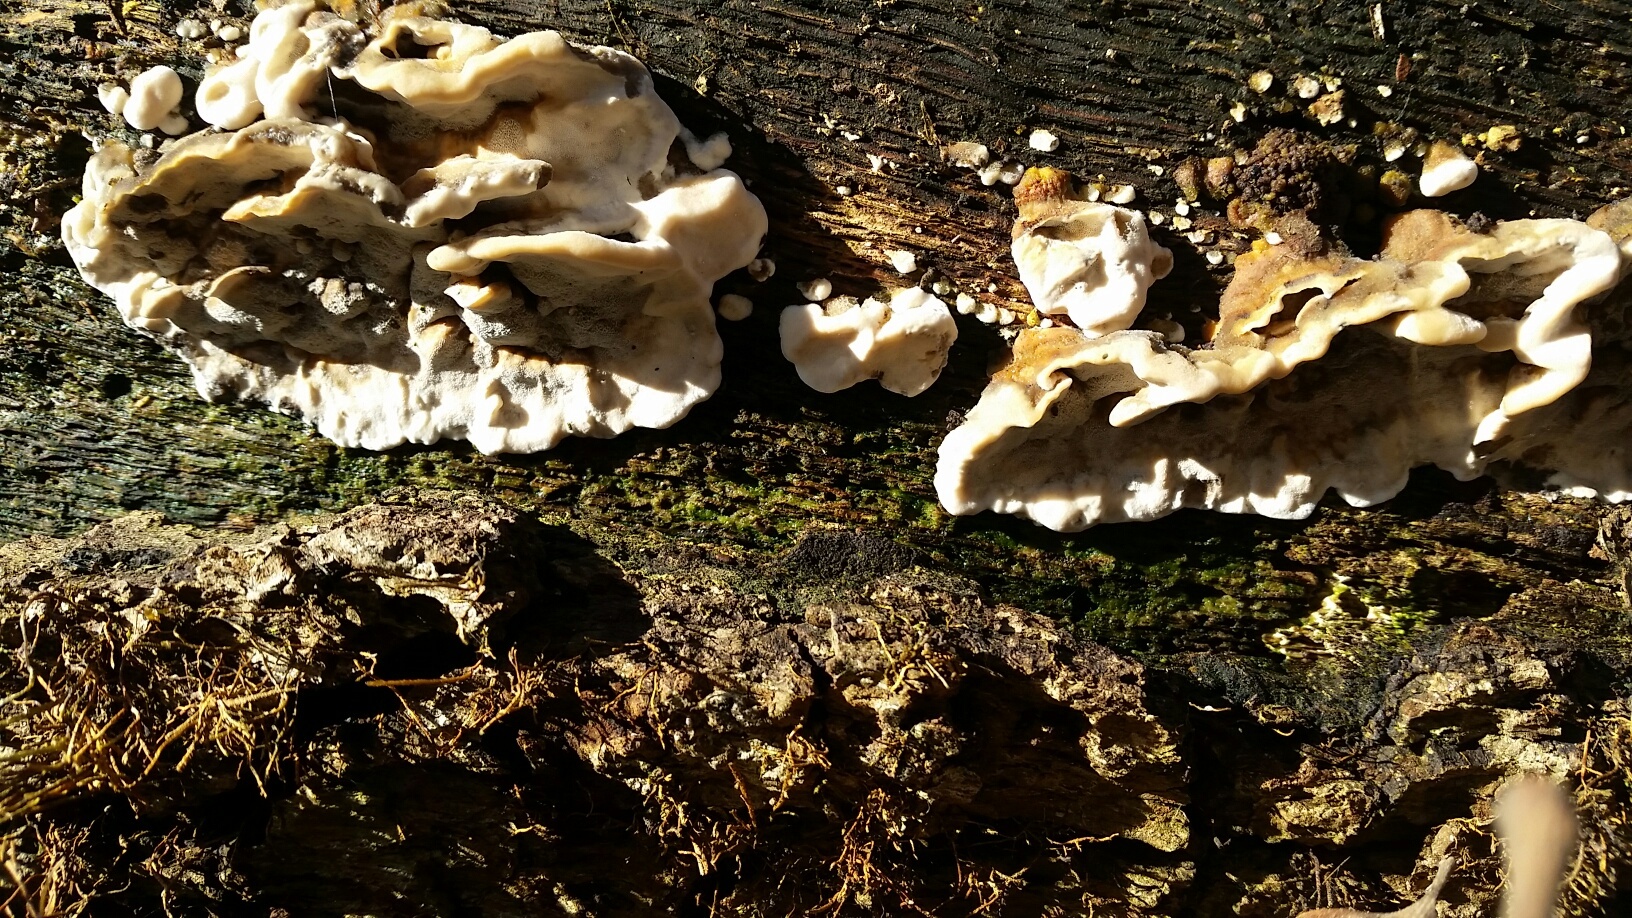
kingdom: Fungi
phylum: Basidiomycota
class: Agaricomycetes
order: Polyporales
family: Phanerochaetaceae
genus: Bjerkandera
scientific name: Bjerkandera adusta
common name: Smoky bracket
